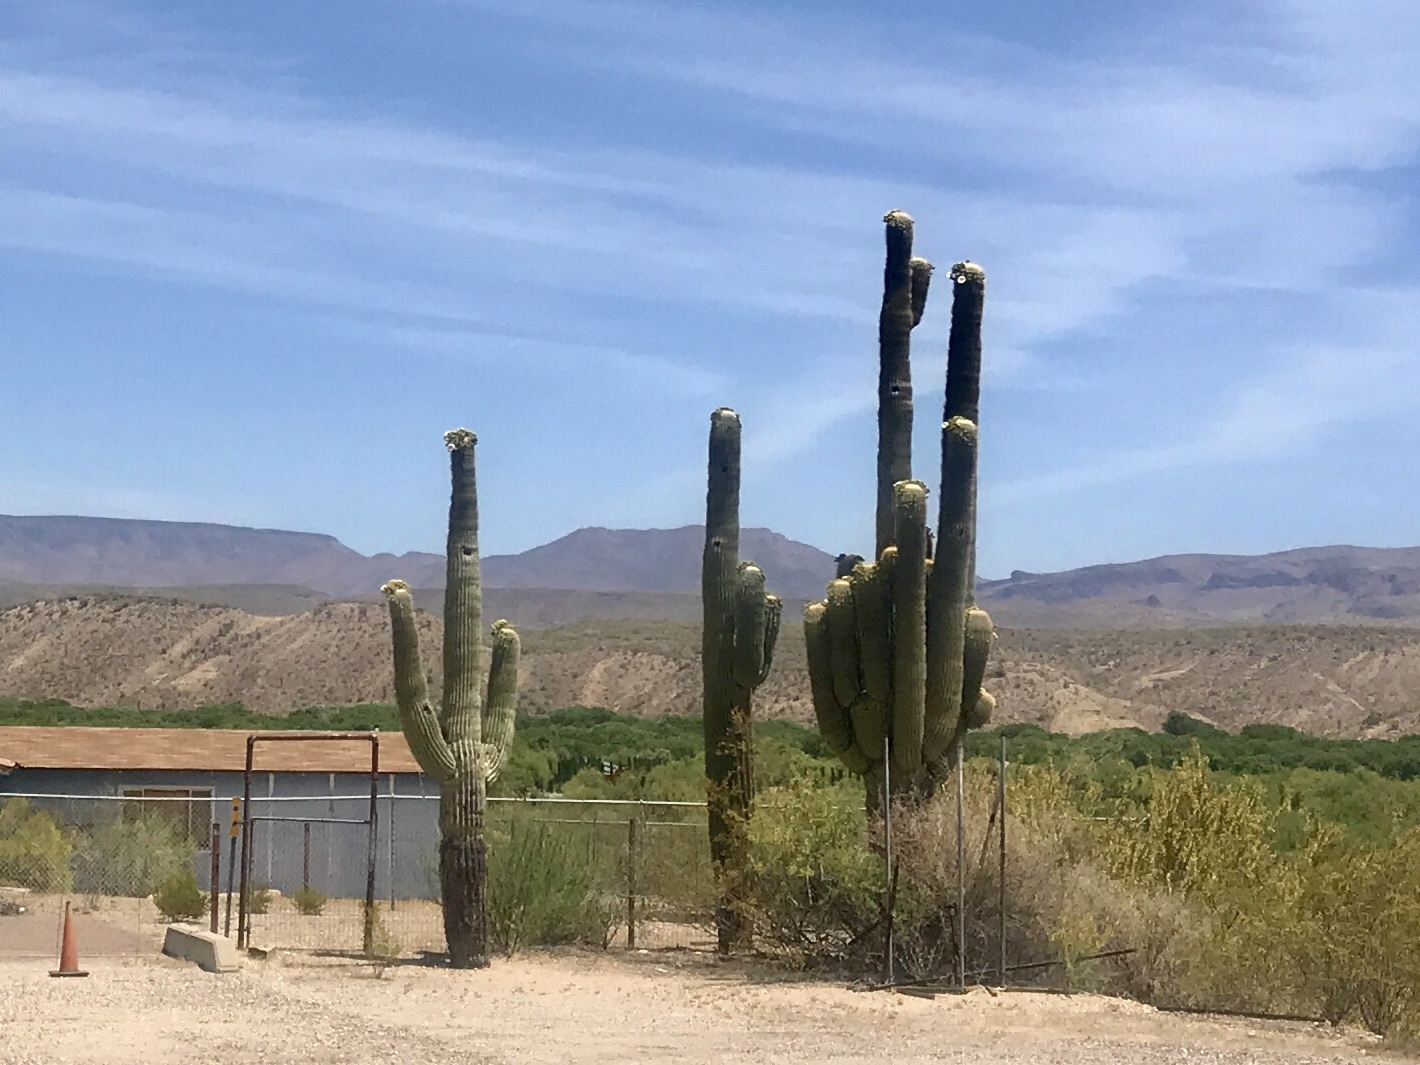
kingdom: Plantae
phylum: Tracheophyta
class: Magnoliopsida
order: Caryophyllales
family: Cactaceae
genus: Carnegiea
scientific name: Carnegiea gigantea
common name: Saguaro
